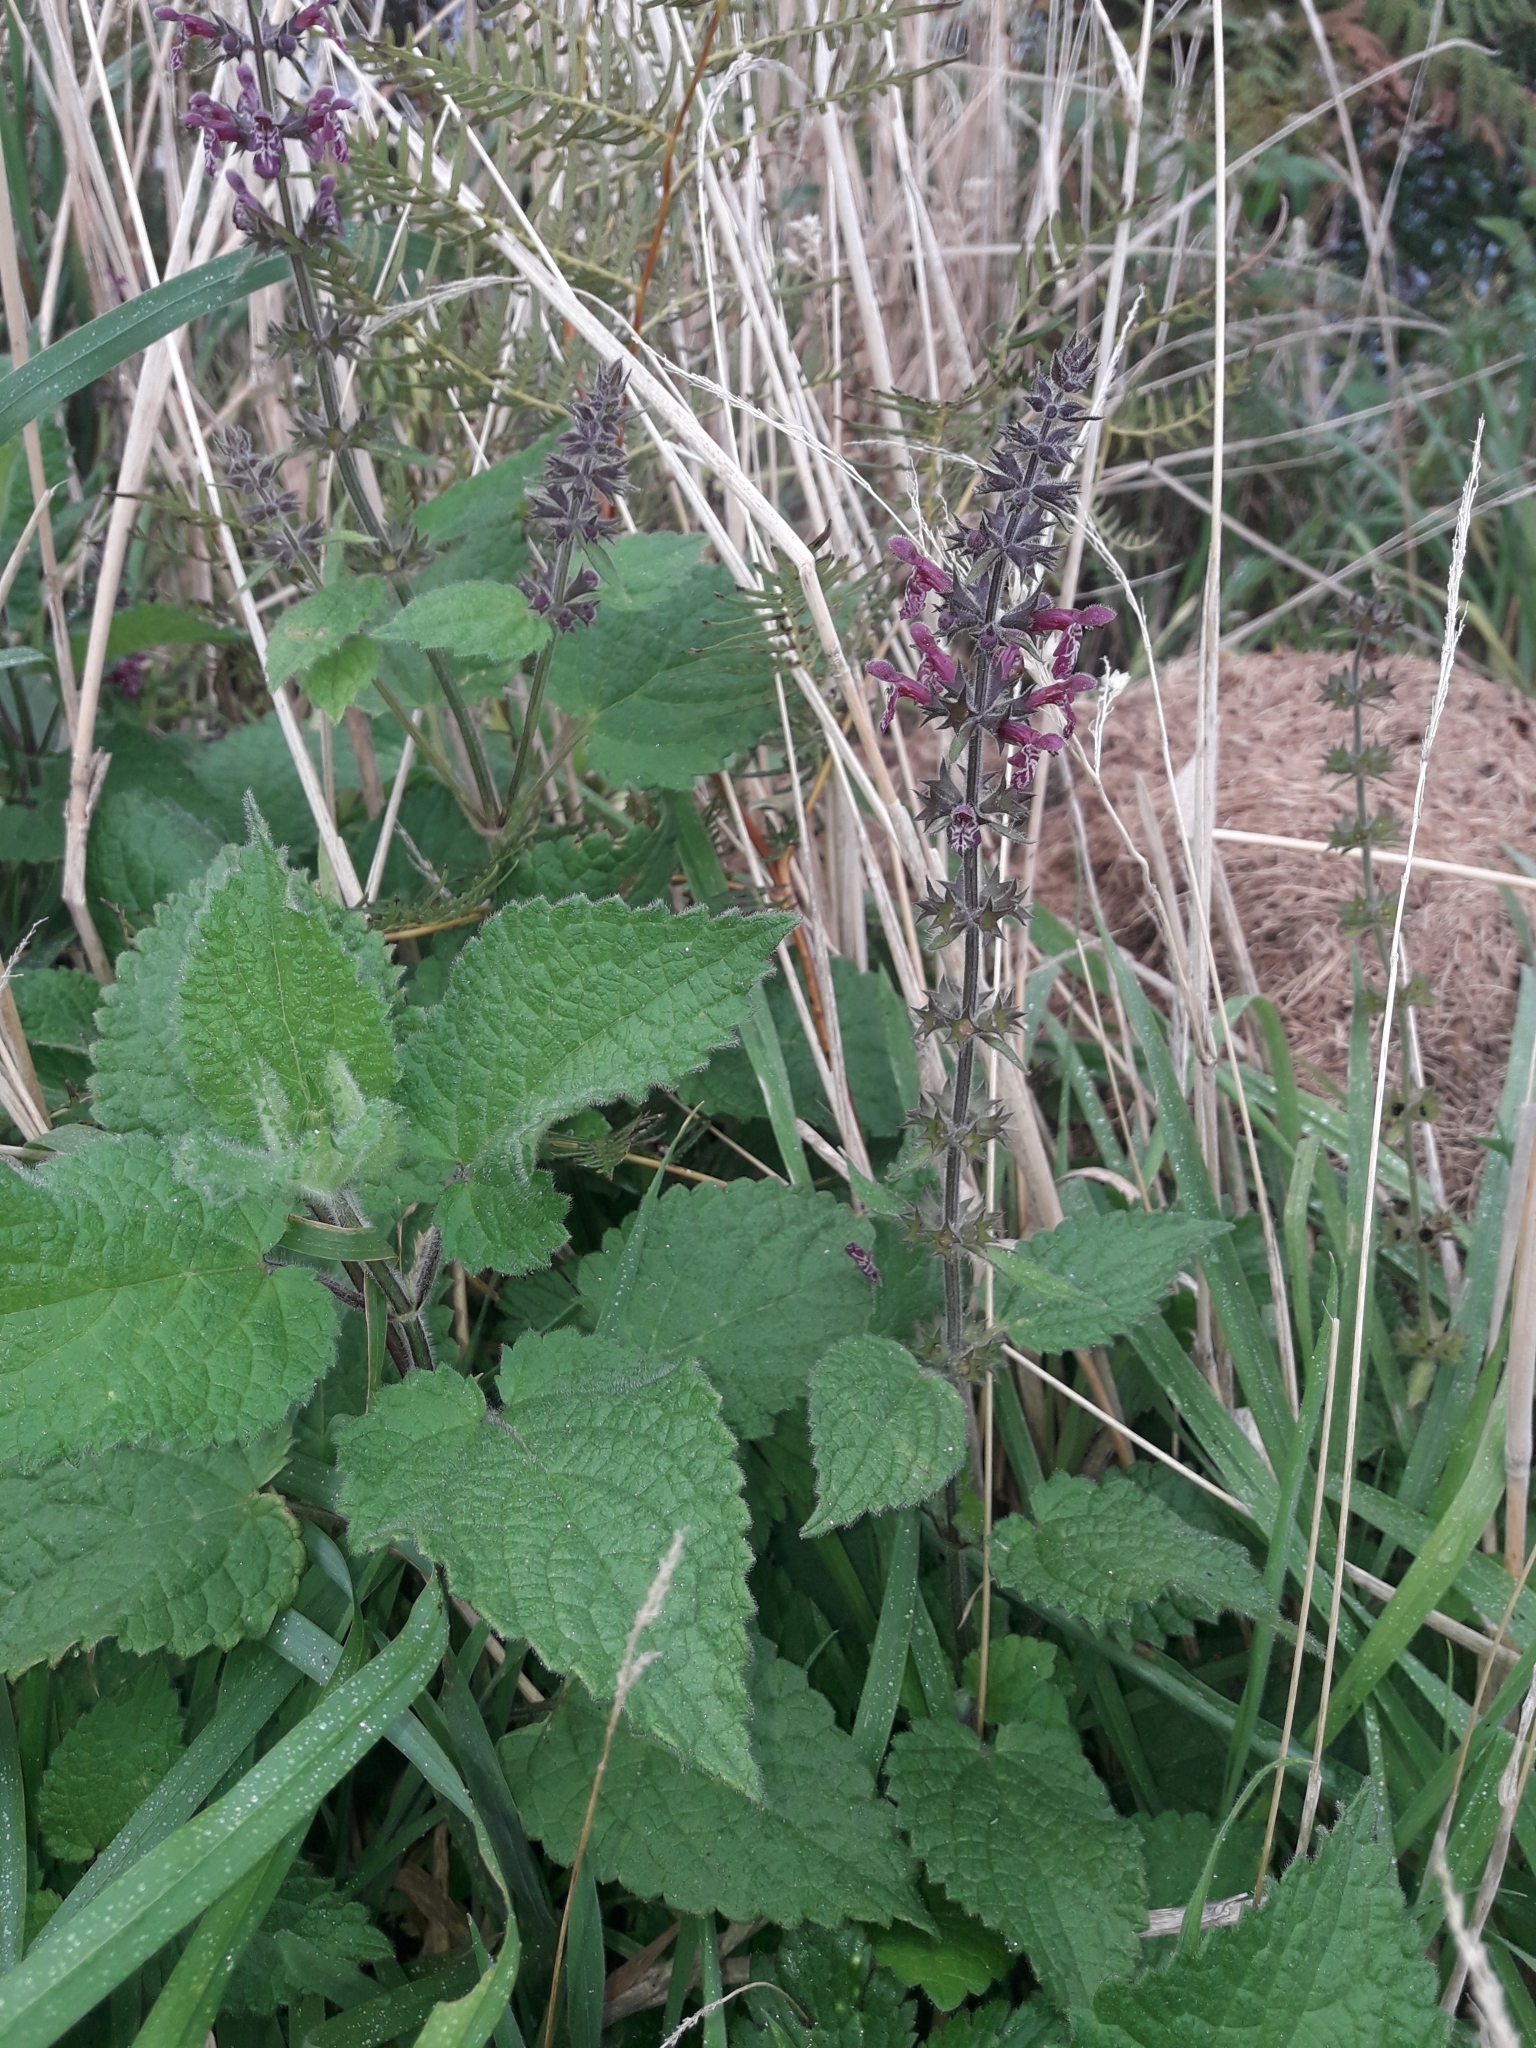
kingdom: Plantae
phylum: Tracheophyta
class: Magnoliopsida
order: Lamiales
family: Lamiaceae
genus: Stachys
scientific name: Stachys sylvatica
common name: Hedge woundwort
